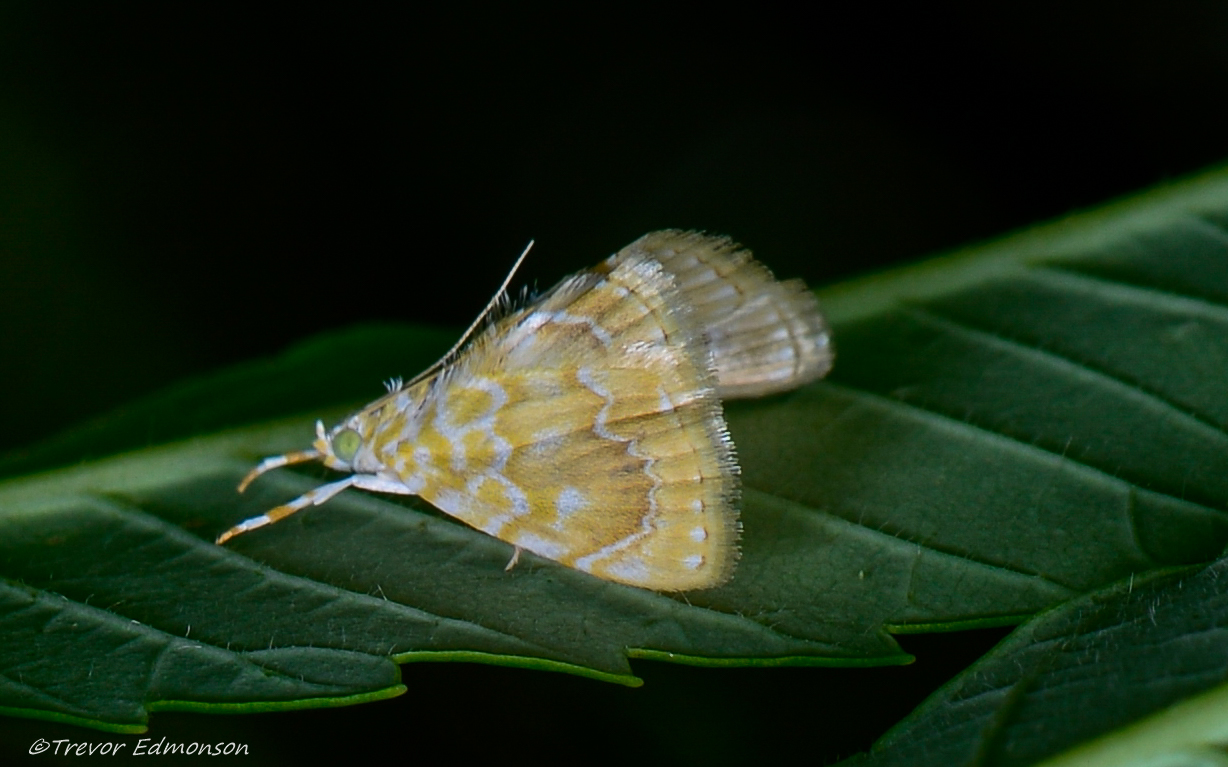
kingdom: Animalia
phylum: Arthropoda
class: Insecta
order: Lepidoptera
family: Crambidae
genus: Glaphyria
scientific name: Glaphyria glaphyralis
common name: Common glaphyria moth
